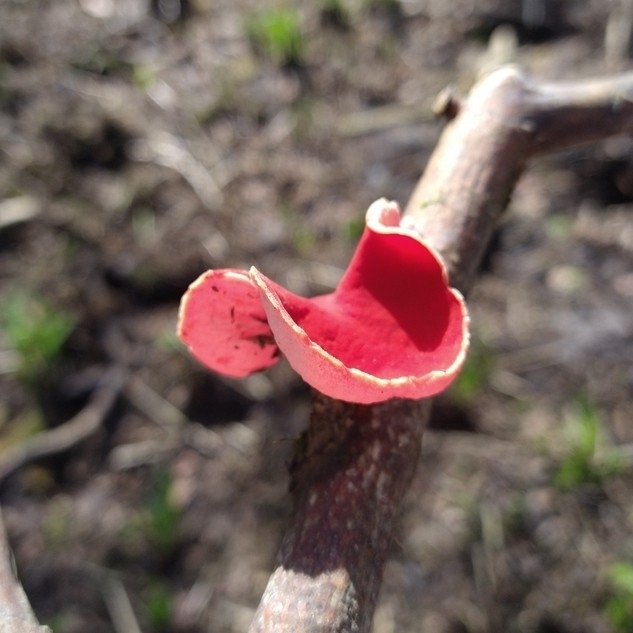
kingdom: Fungi
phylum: Ascomycota
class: Pezizomycetes
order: Pezizales
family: Sarcoscyphaceae
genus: Sarcoscypha
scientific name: Sarcoscypha
